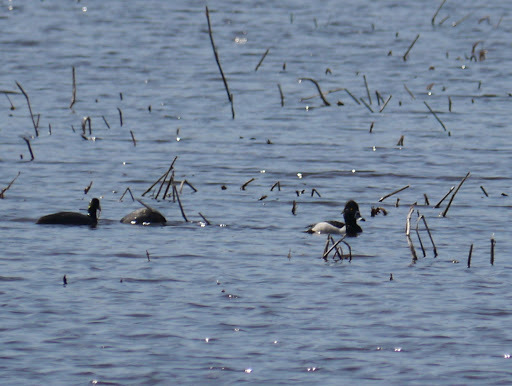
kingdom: Animalia
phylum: Chordata
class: Aves
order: Anseriformes
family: Anatidae
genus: Aythya
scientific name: Aythya collaris
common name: Ring-necked duck
